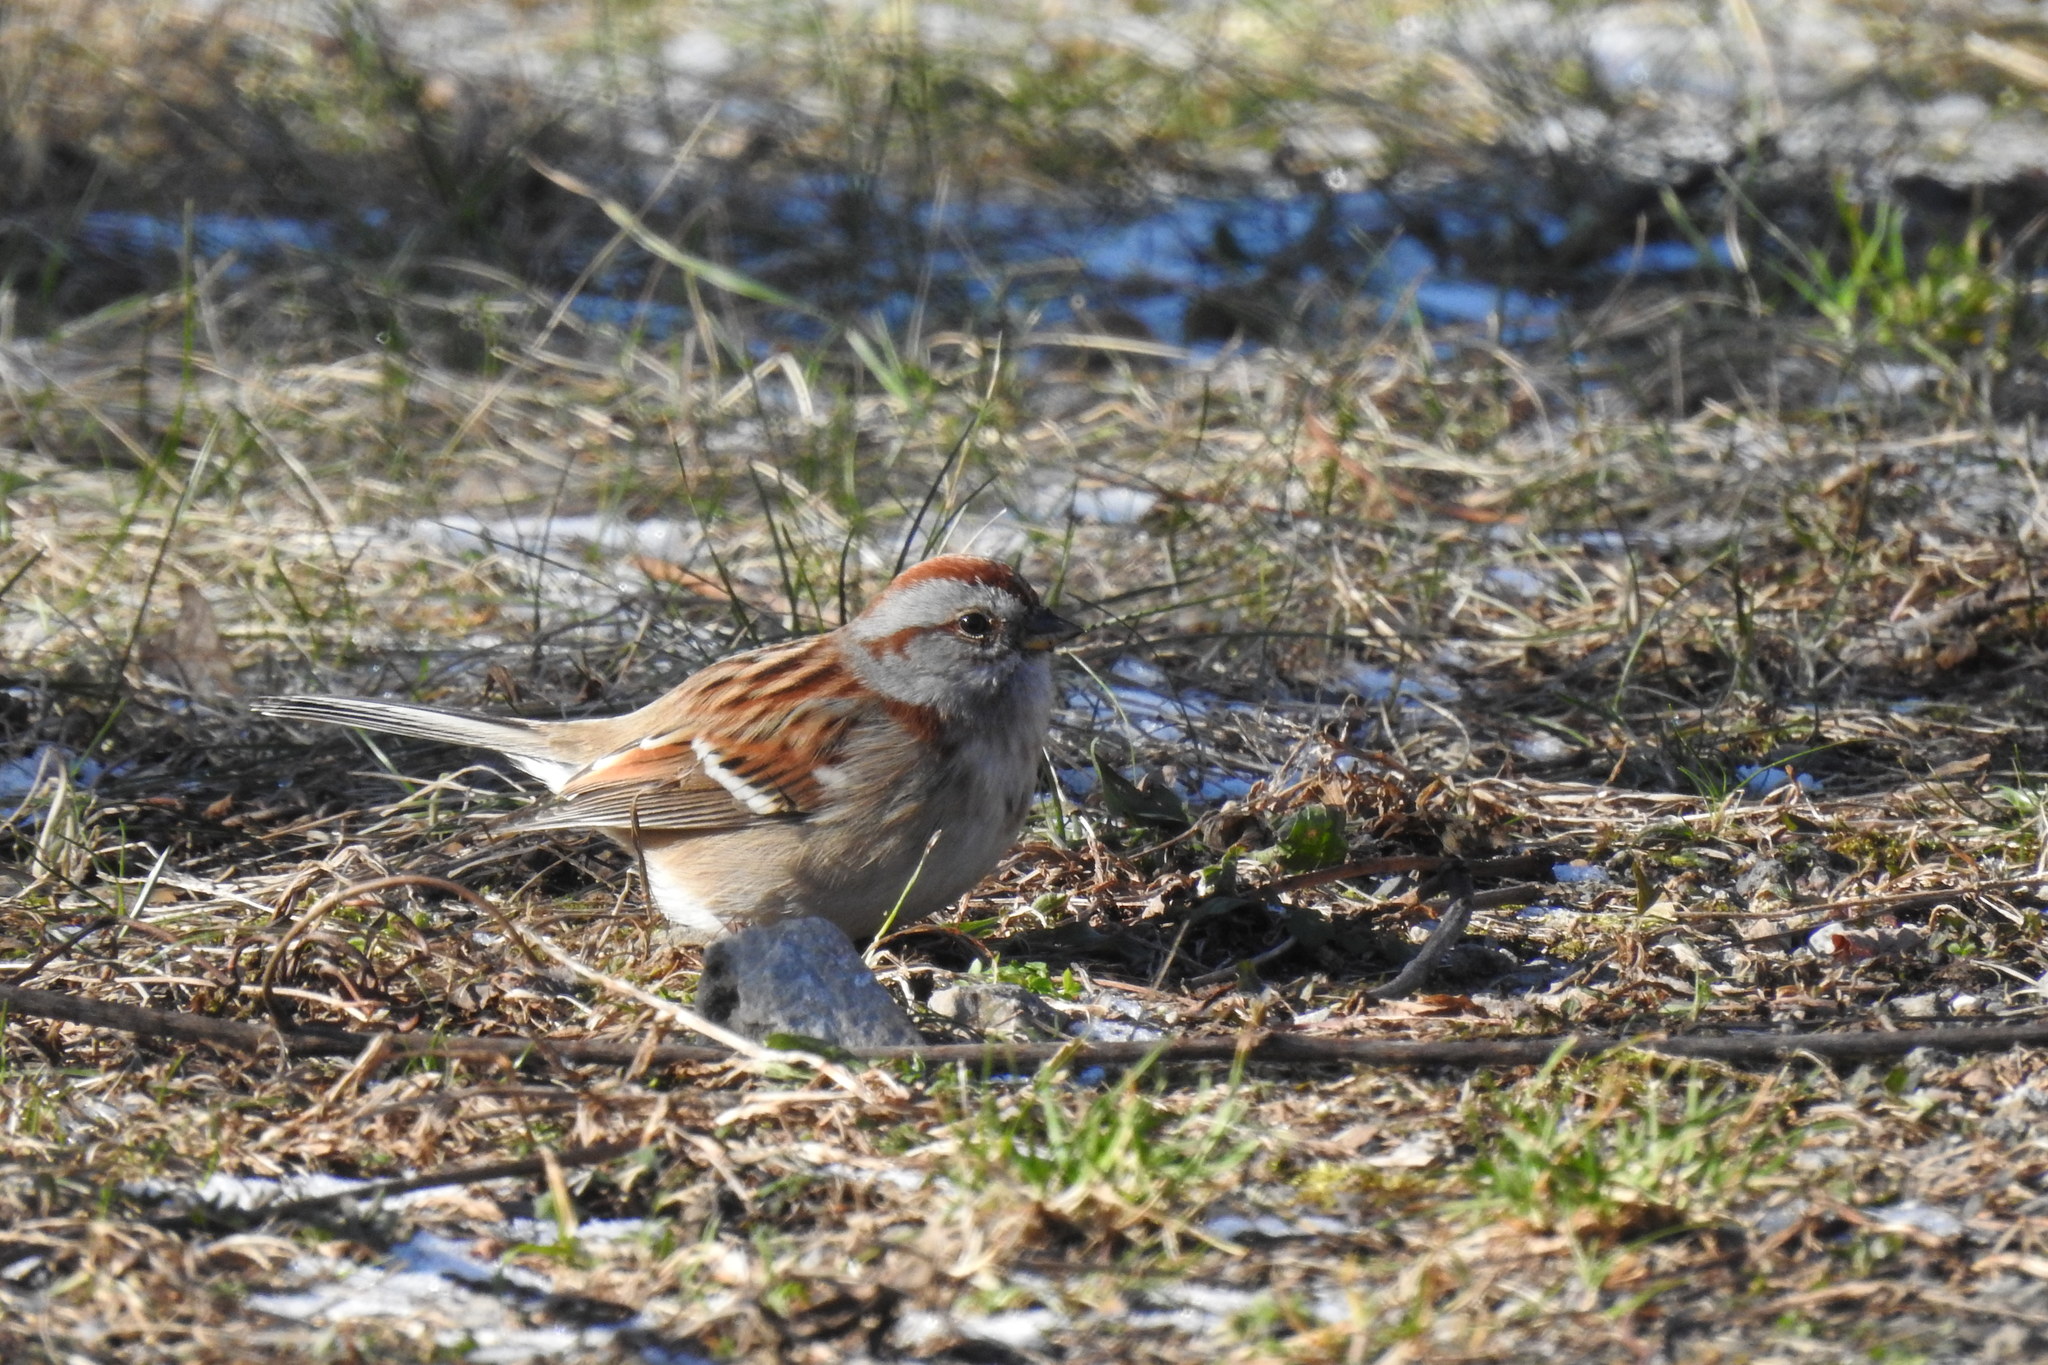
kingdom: Animalia
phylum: Chordata
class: Aves
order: Passeriformes
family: Passerellidae
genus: Spizelloides
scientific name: Spizelloides arborea
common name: American tree sparrow
